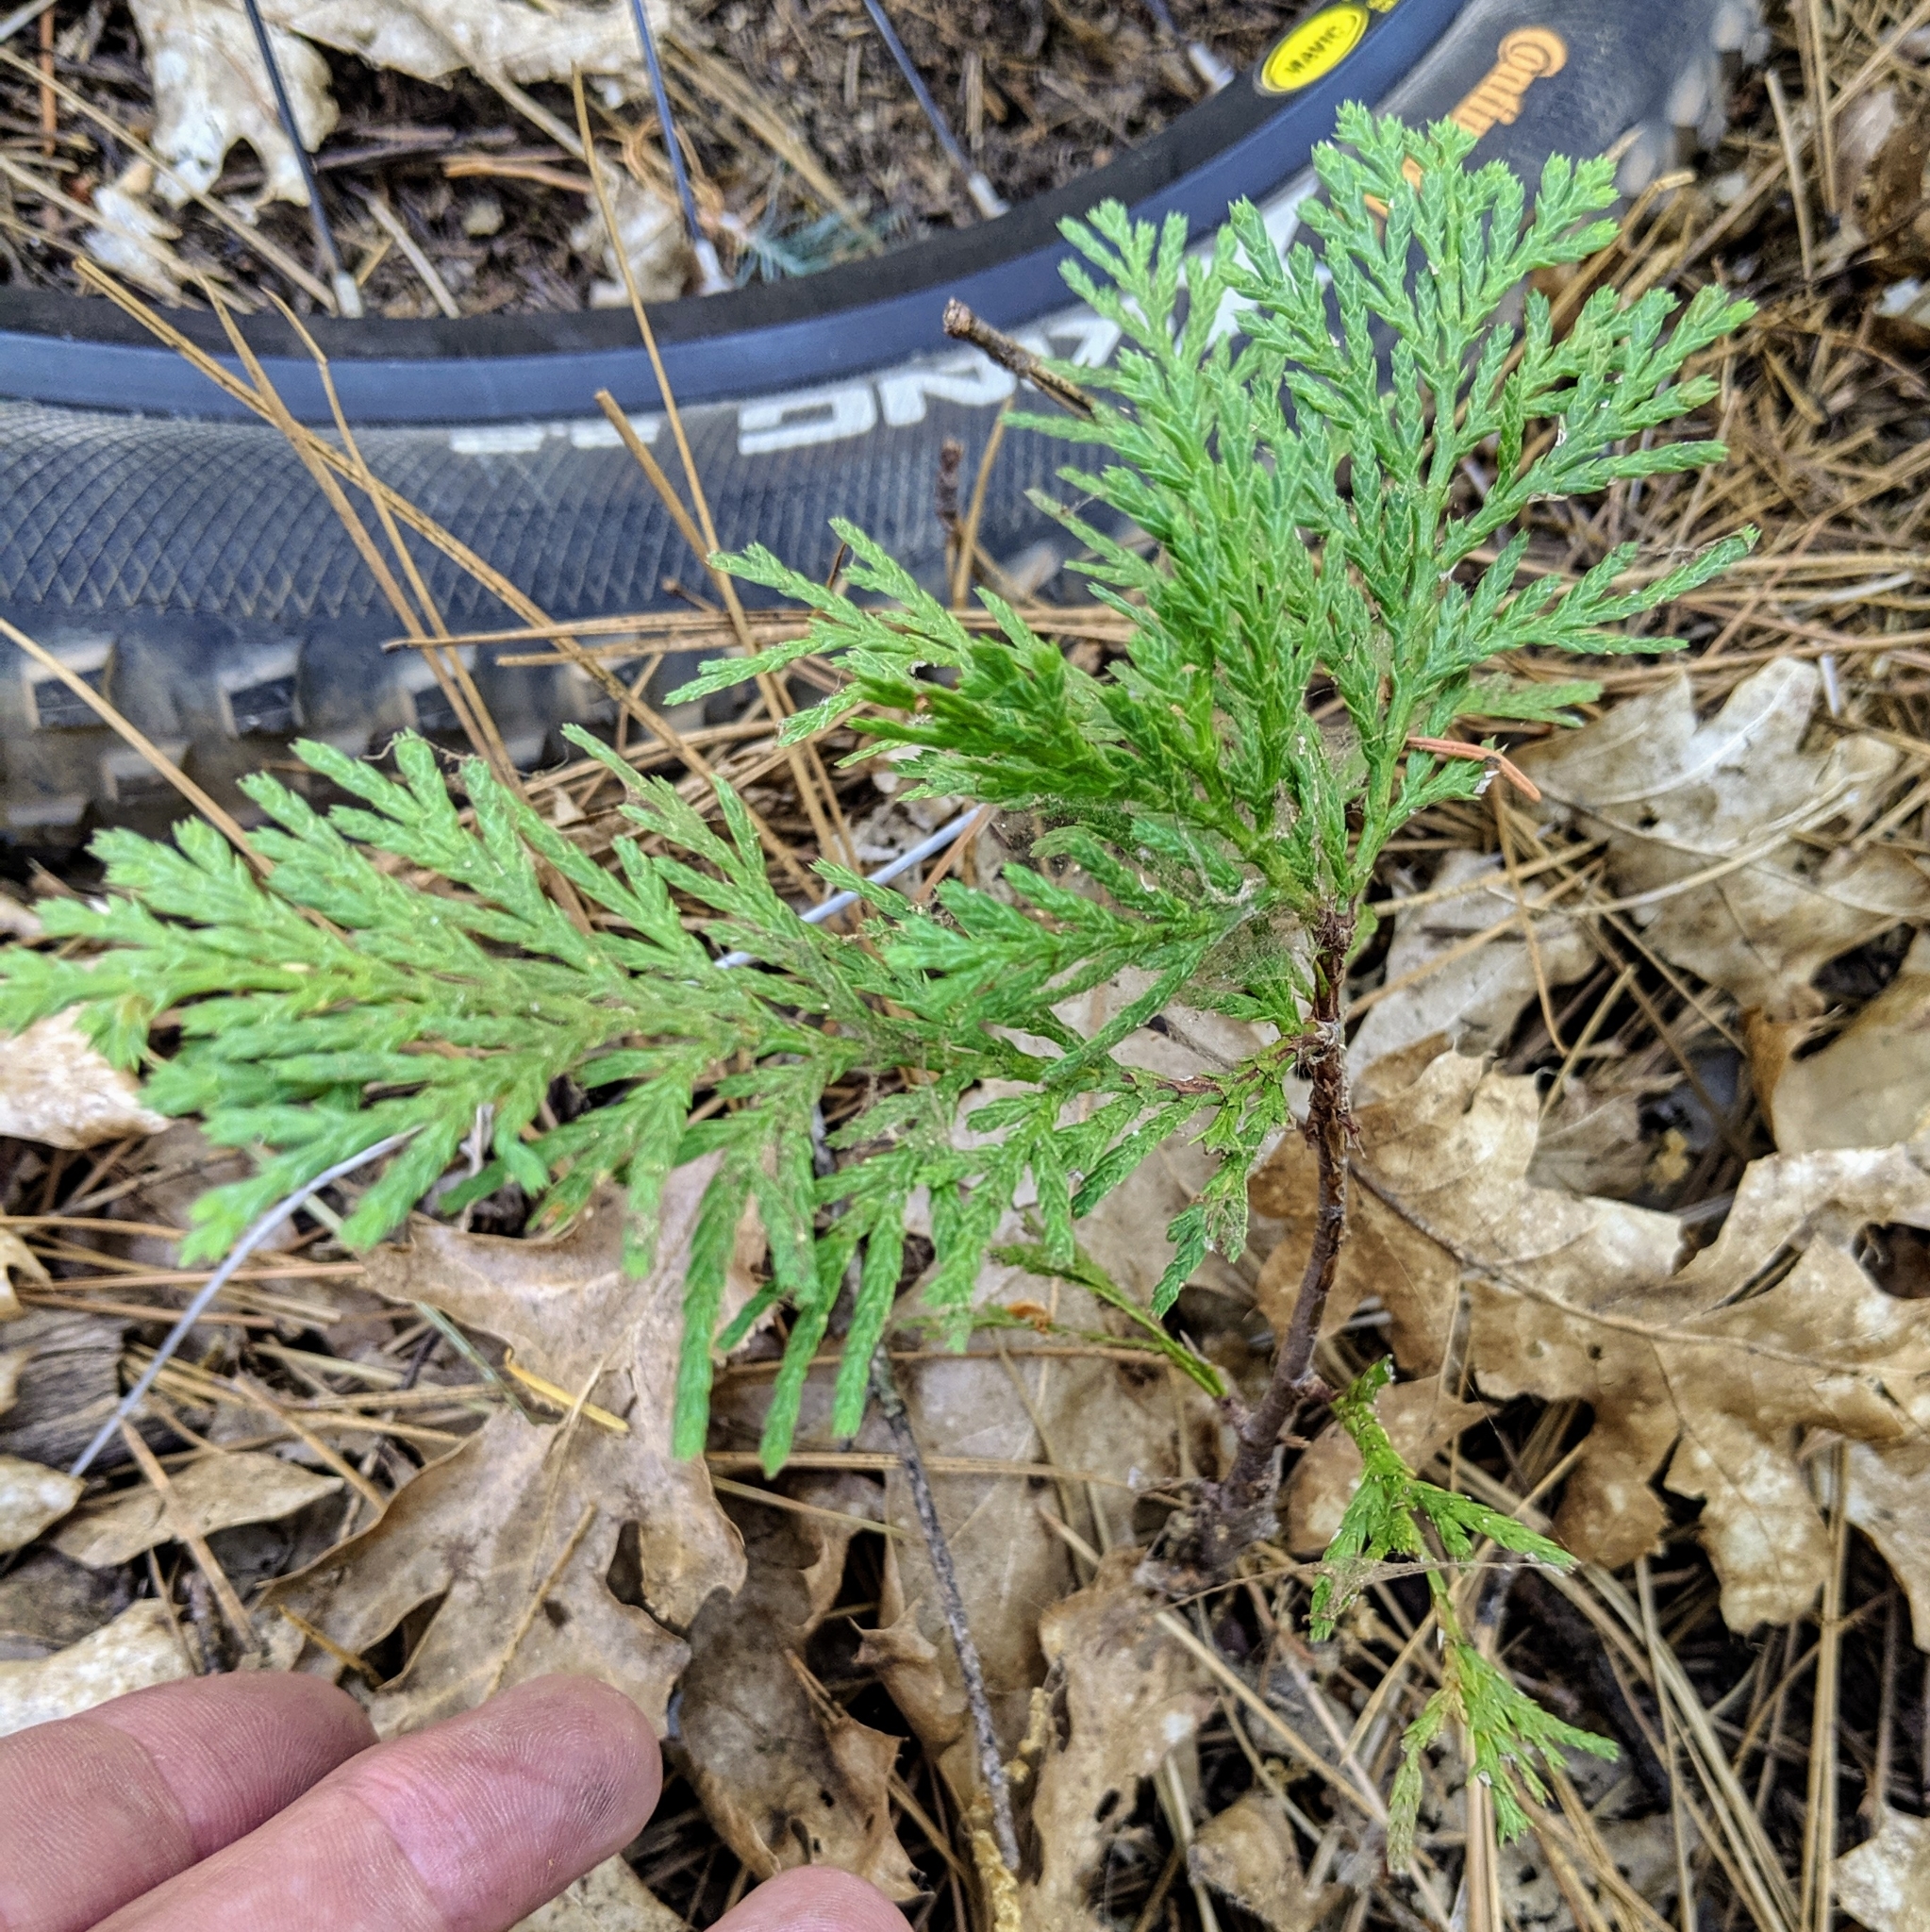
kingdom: Plantae
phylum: Tracheophyta
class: Pinopsida
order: Pinales
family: Cupressaceae
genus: Calocedrus
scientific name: Calocedrus decurrens
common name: Californian incense-cedar
